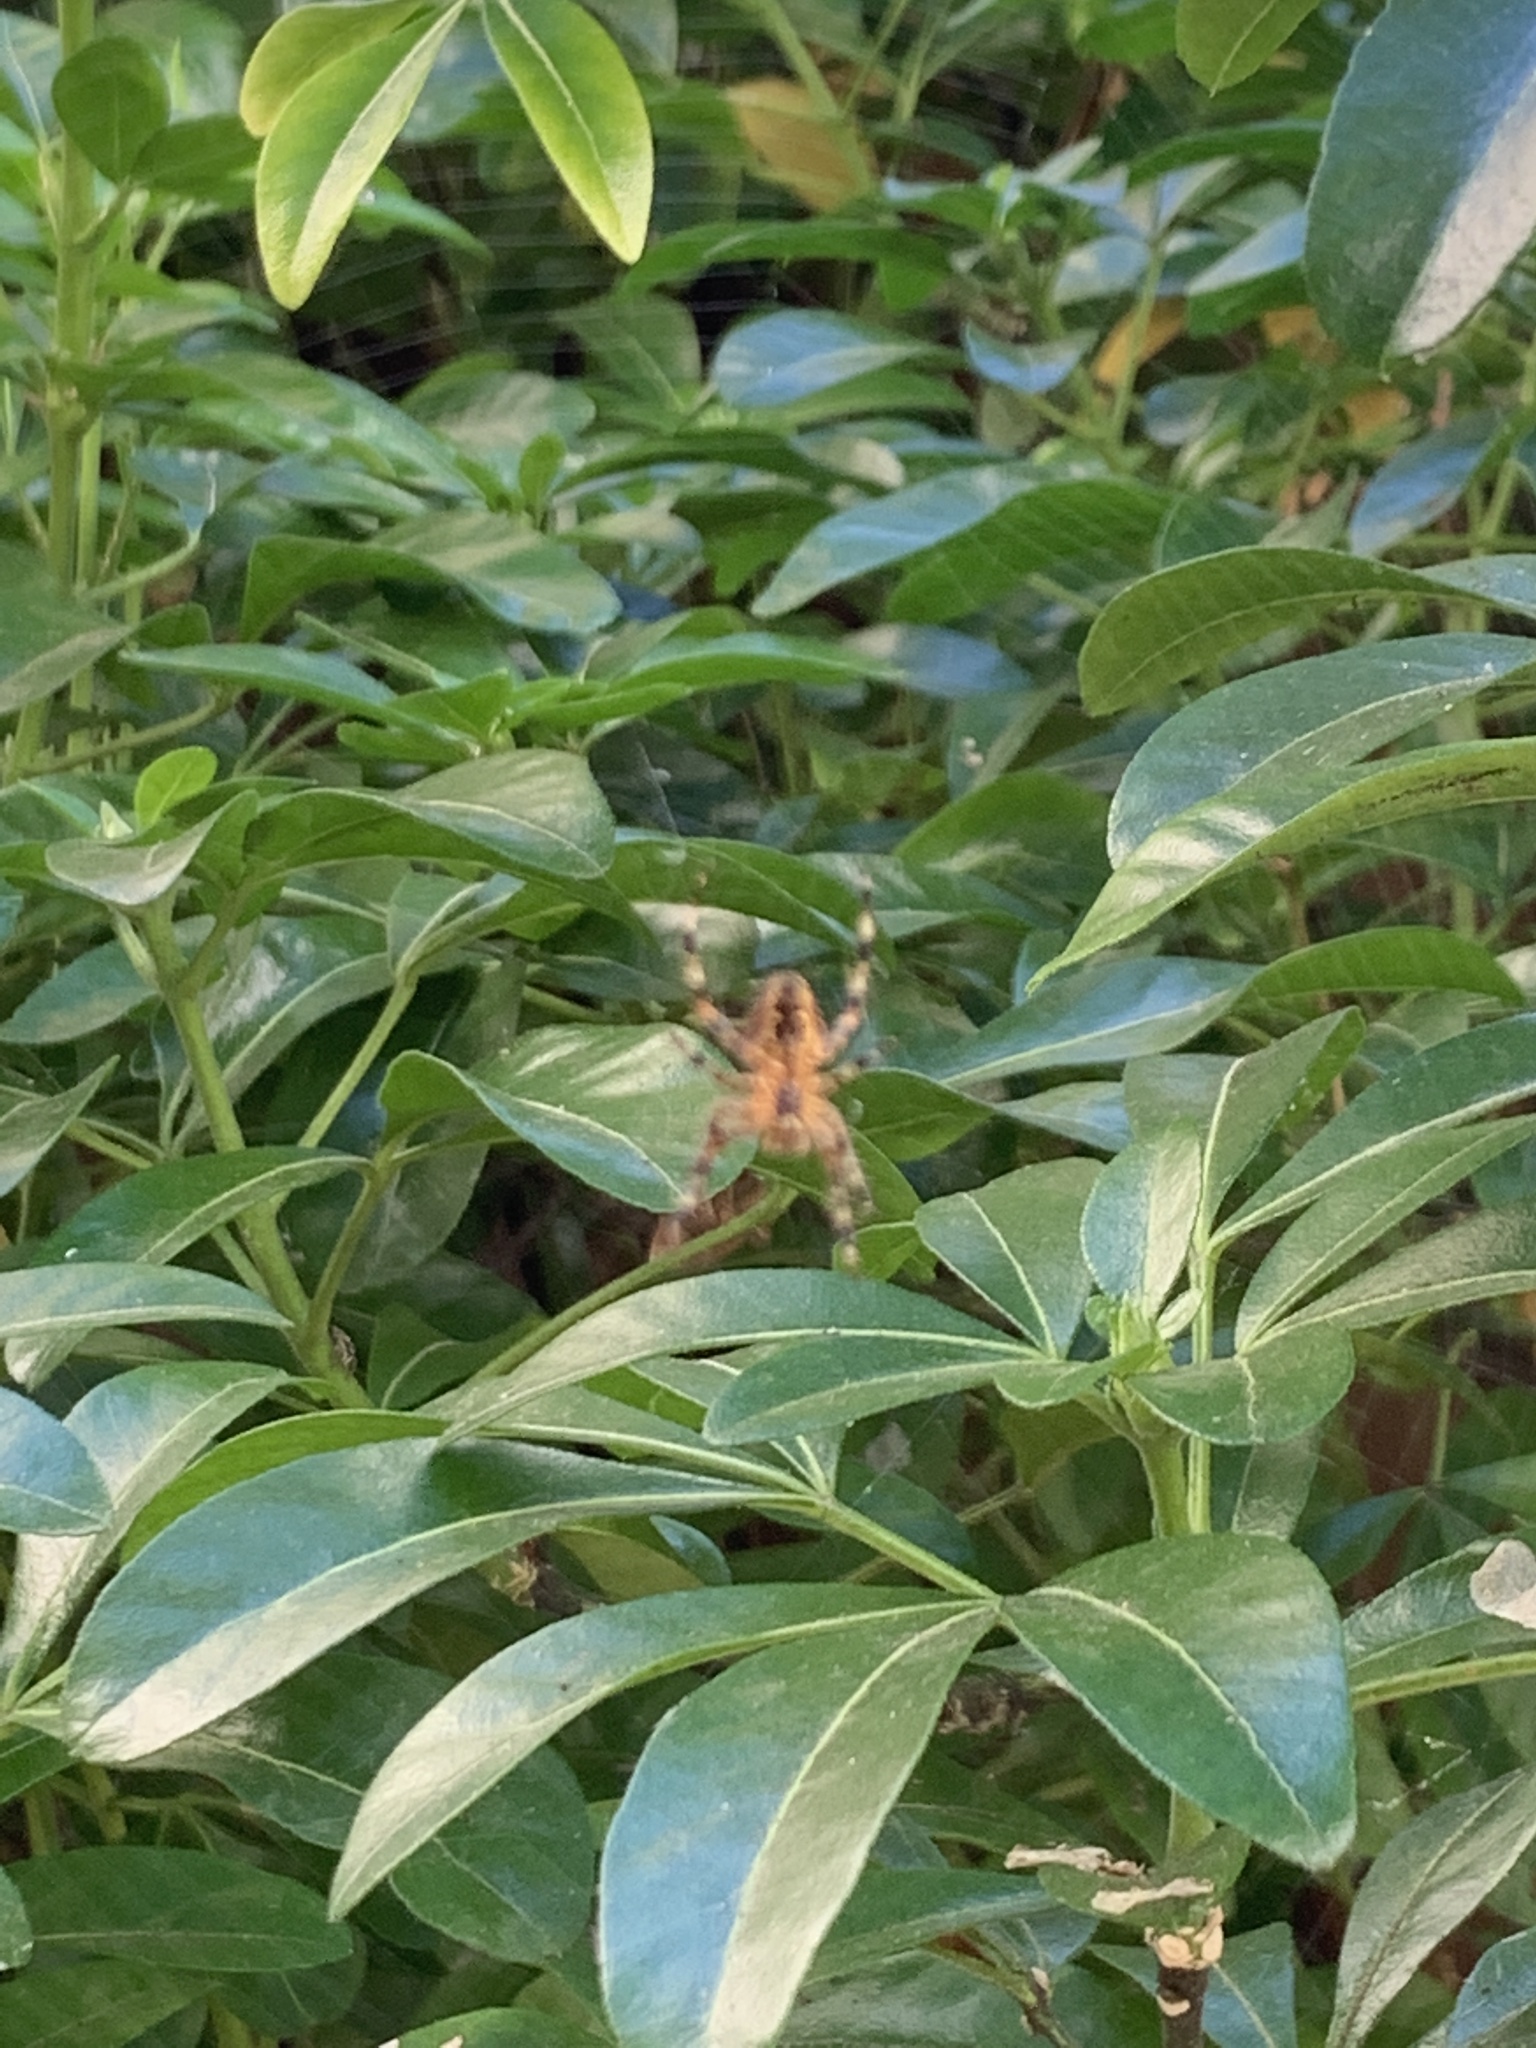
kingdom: Animalia
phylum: Arthropoda
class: Arachnida
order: Araneae
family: Araneidae
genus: Araneus
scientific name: Araneus diadematus
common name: Cross orbweaver
